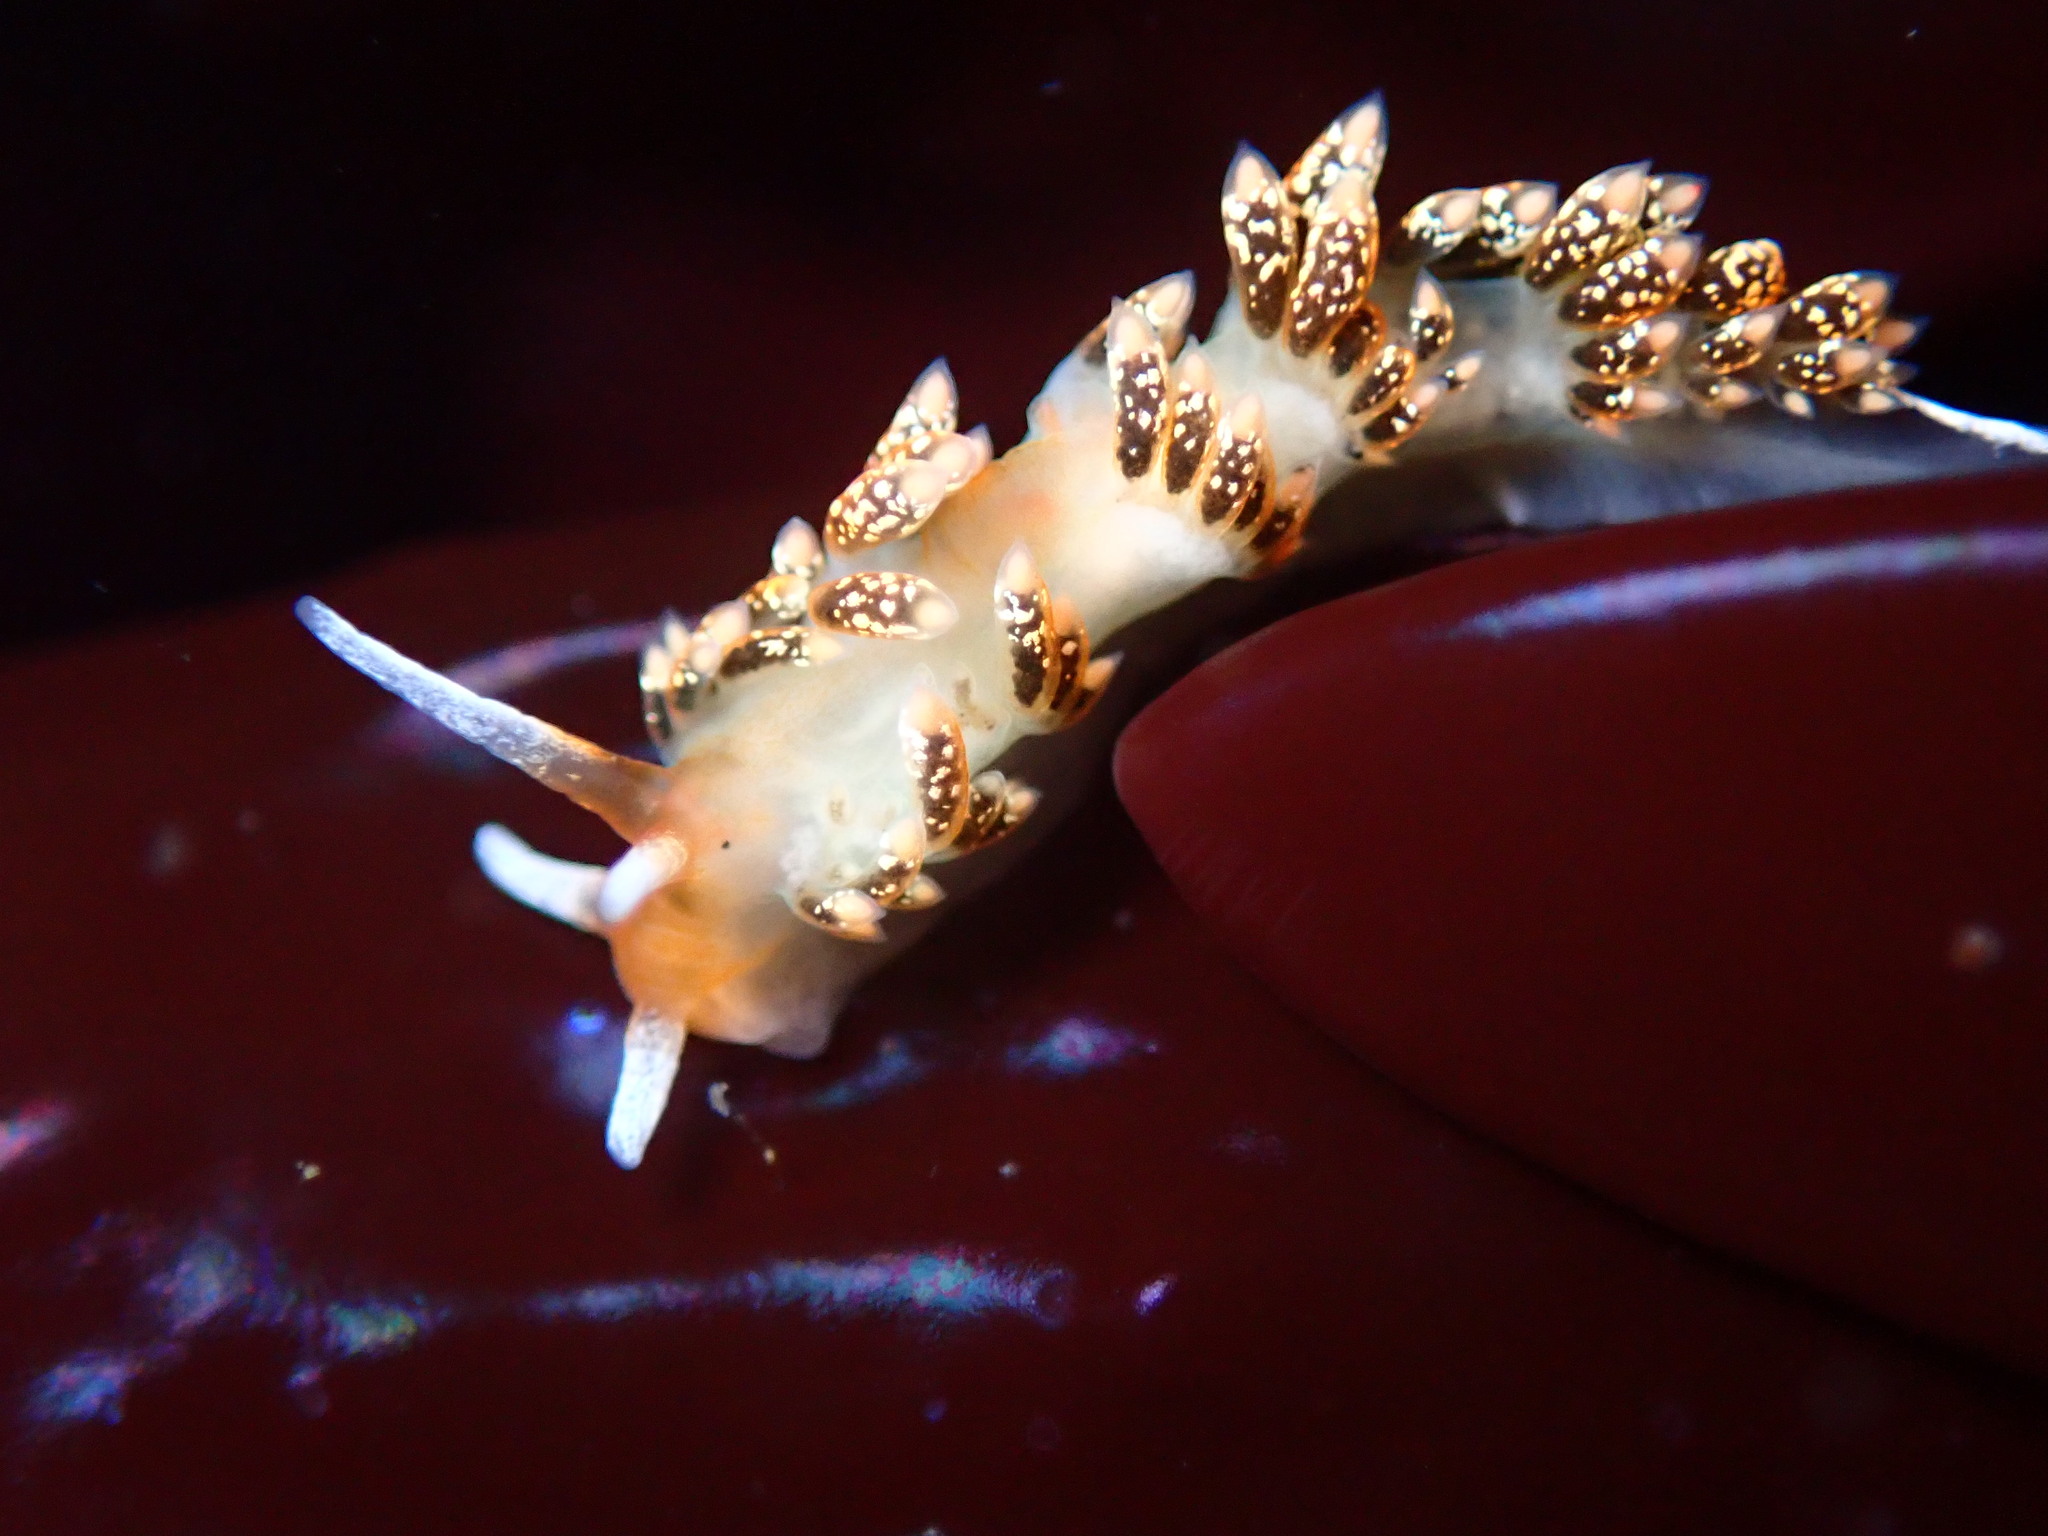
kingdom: Animalia
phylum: Mollusca
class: Gastropoda
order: Nudibranchia
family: Trinchesiidae
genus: Diaphoreolis
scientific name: Diaphoreolis flavovulta
